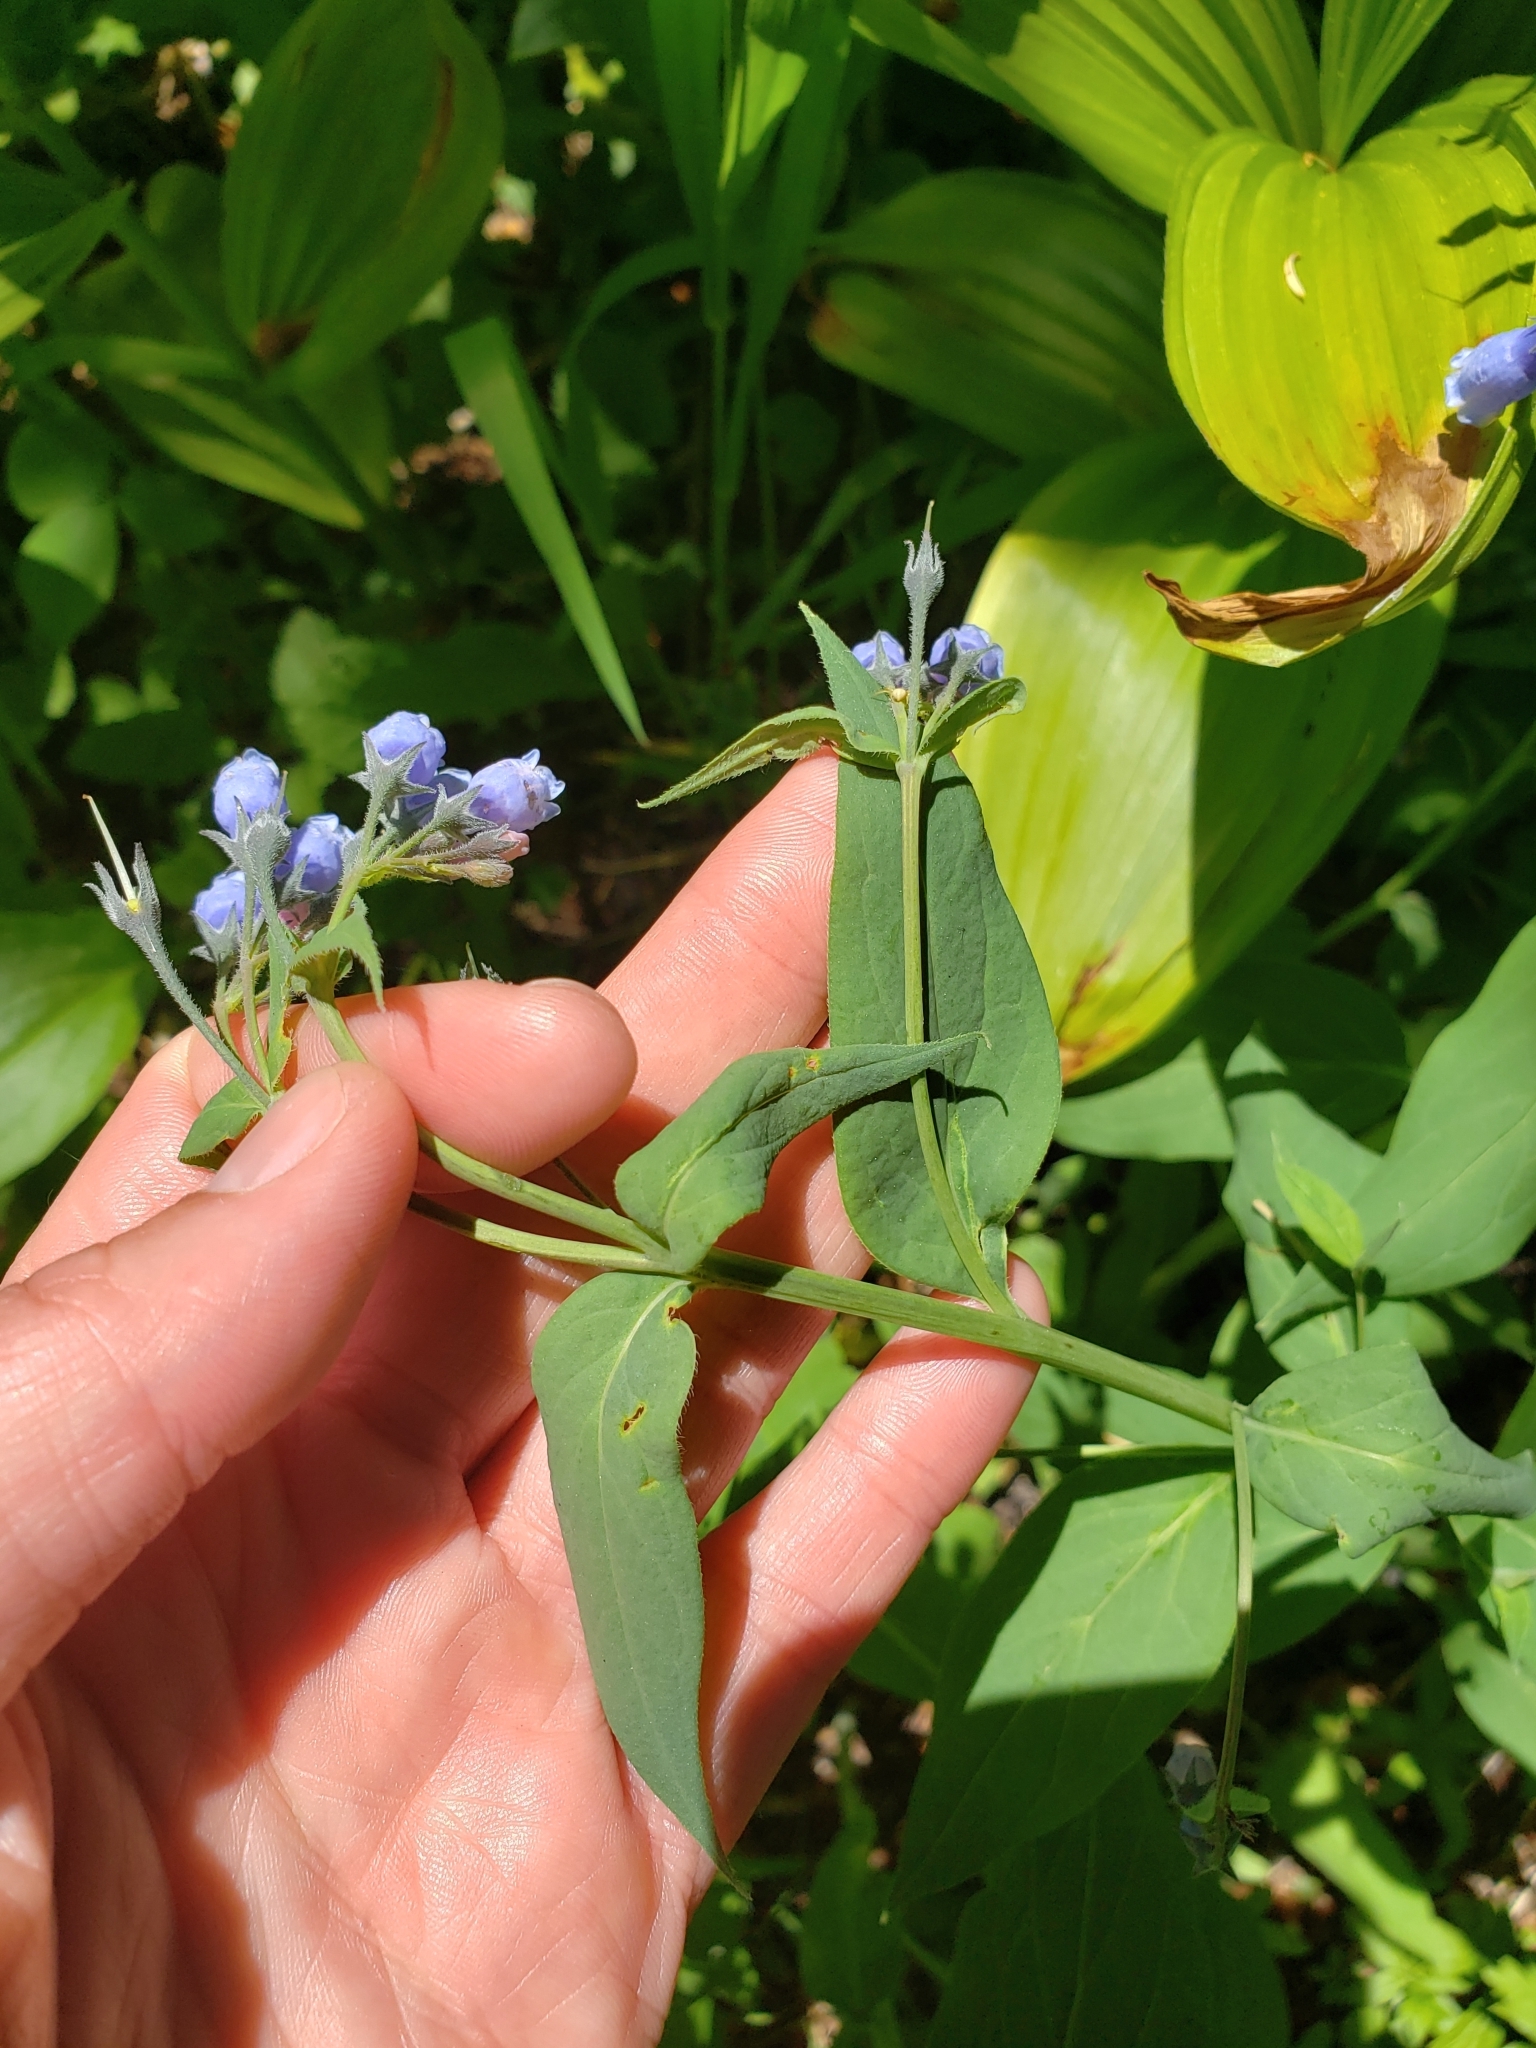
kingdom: Plantae
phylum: Tracheophyta
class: Magnoliopsida
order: Boraginales
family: Boraginaceae
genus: Mertensia
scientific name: Mertensia paniculata
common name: Panicled bluebells
